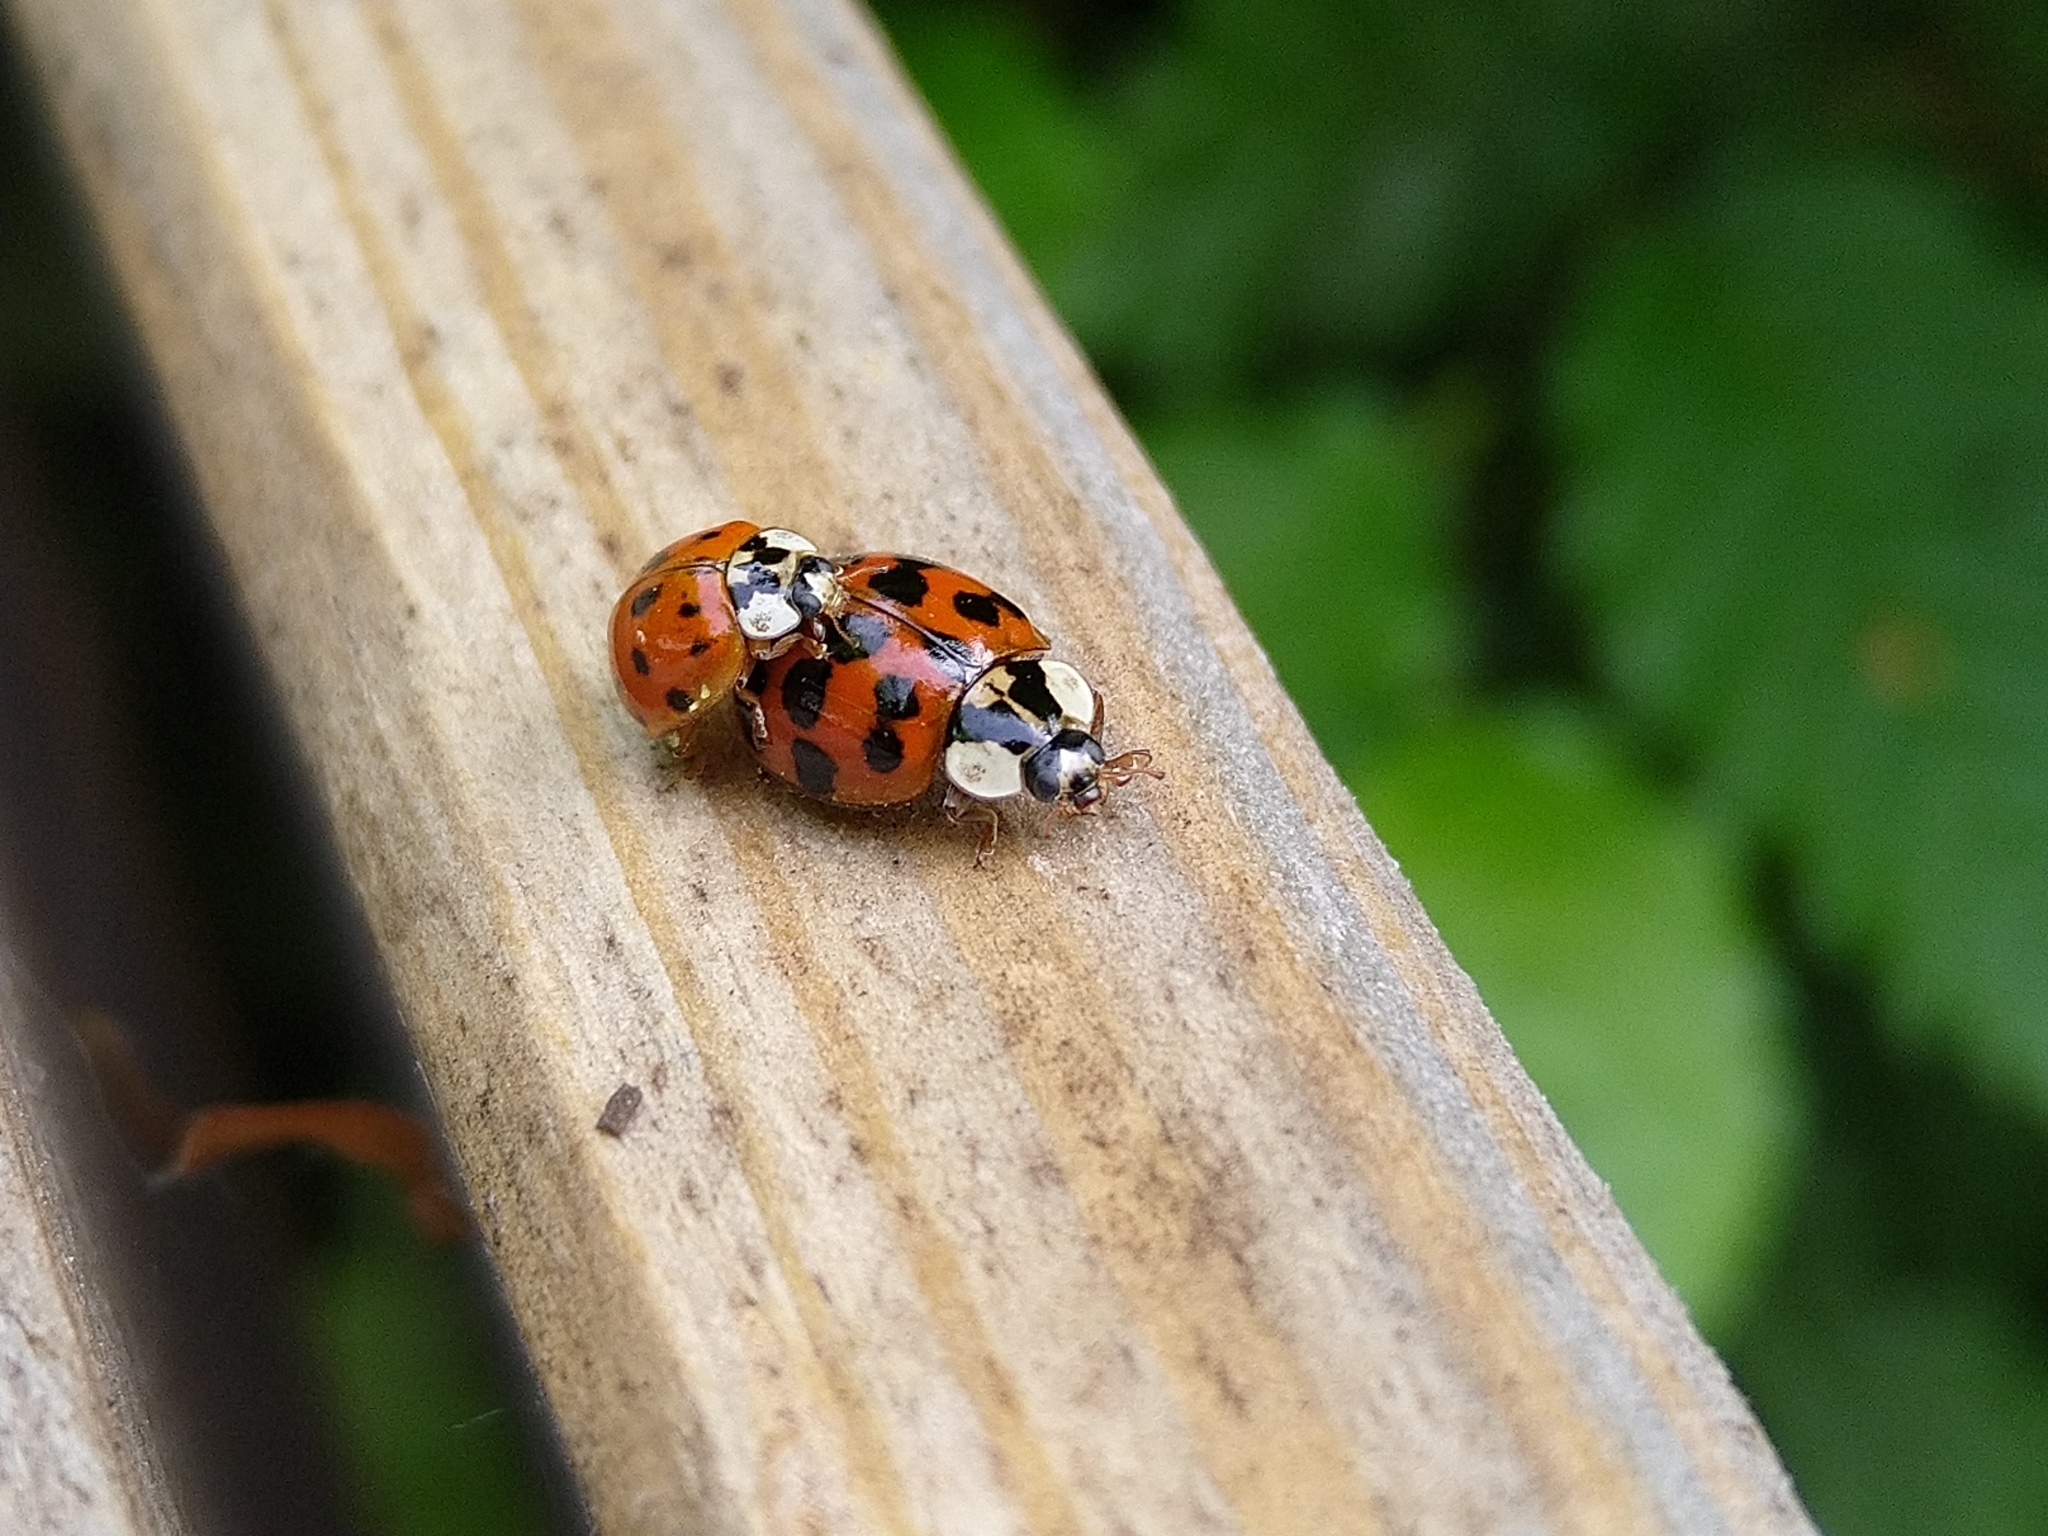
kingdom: Animalia
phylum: Arthropoda
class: Insecta
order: Coleoptera
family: Coccinellidae
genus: Harmonia
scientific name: Harmonia axyridis
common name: Harlequin ladybird
